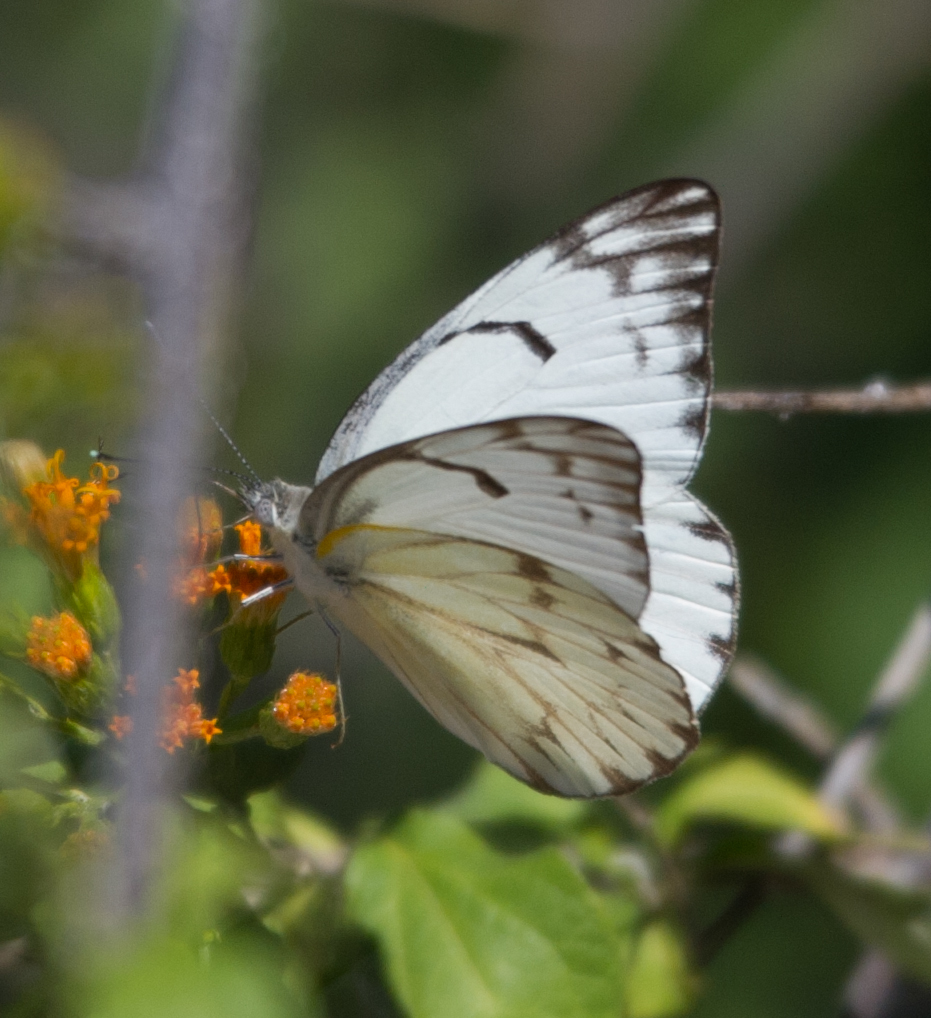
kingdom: Animalia
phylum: Arthropoda
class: Insecta
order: Lepidoptera
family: Pieridae
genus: Belenois
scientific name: Belenois gidica
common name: Pointed caper white
